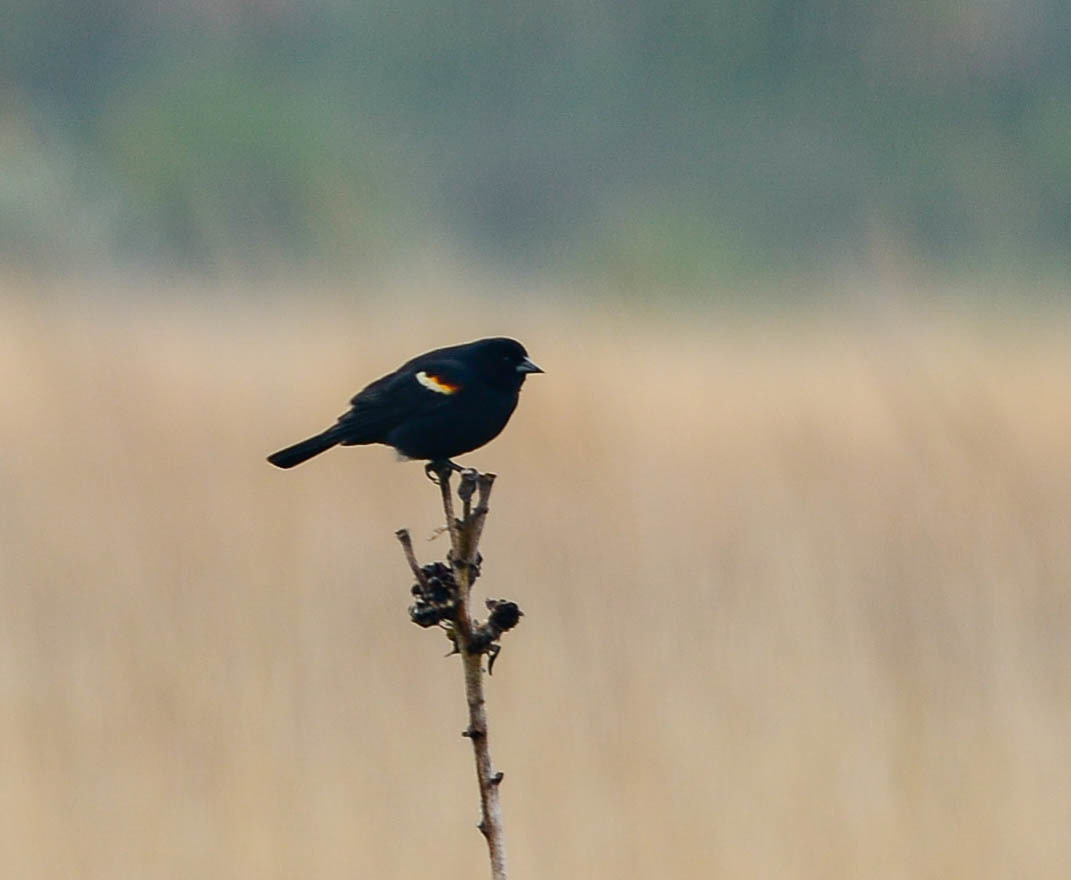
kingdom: Animalia
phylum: Chordata
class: Aves
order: Passeriformes
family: Icteridae
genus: Agelaius
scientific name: Agelaius phoeniceus
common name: Red-winged blackbird
